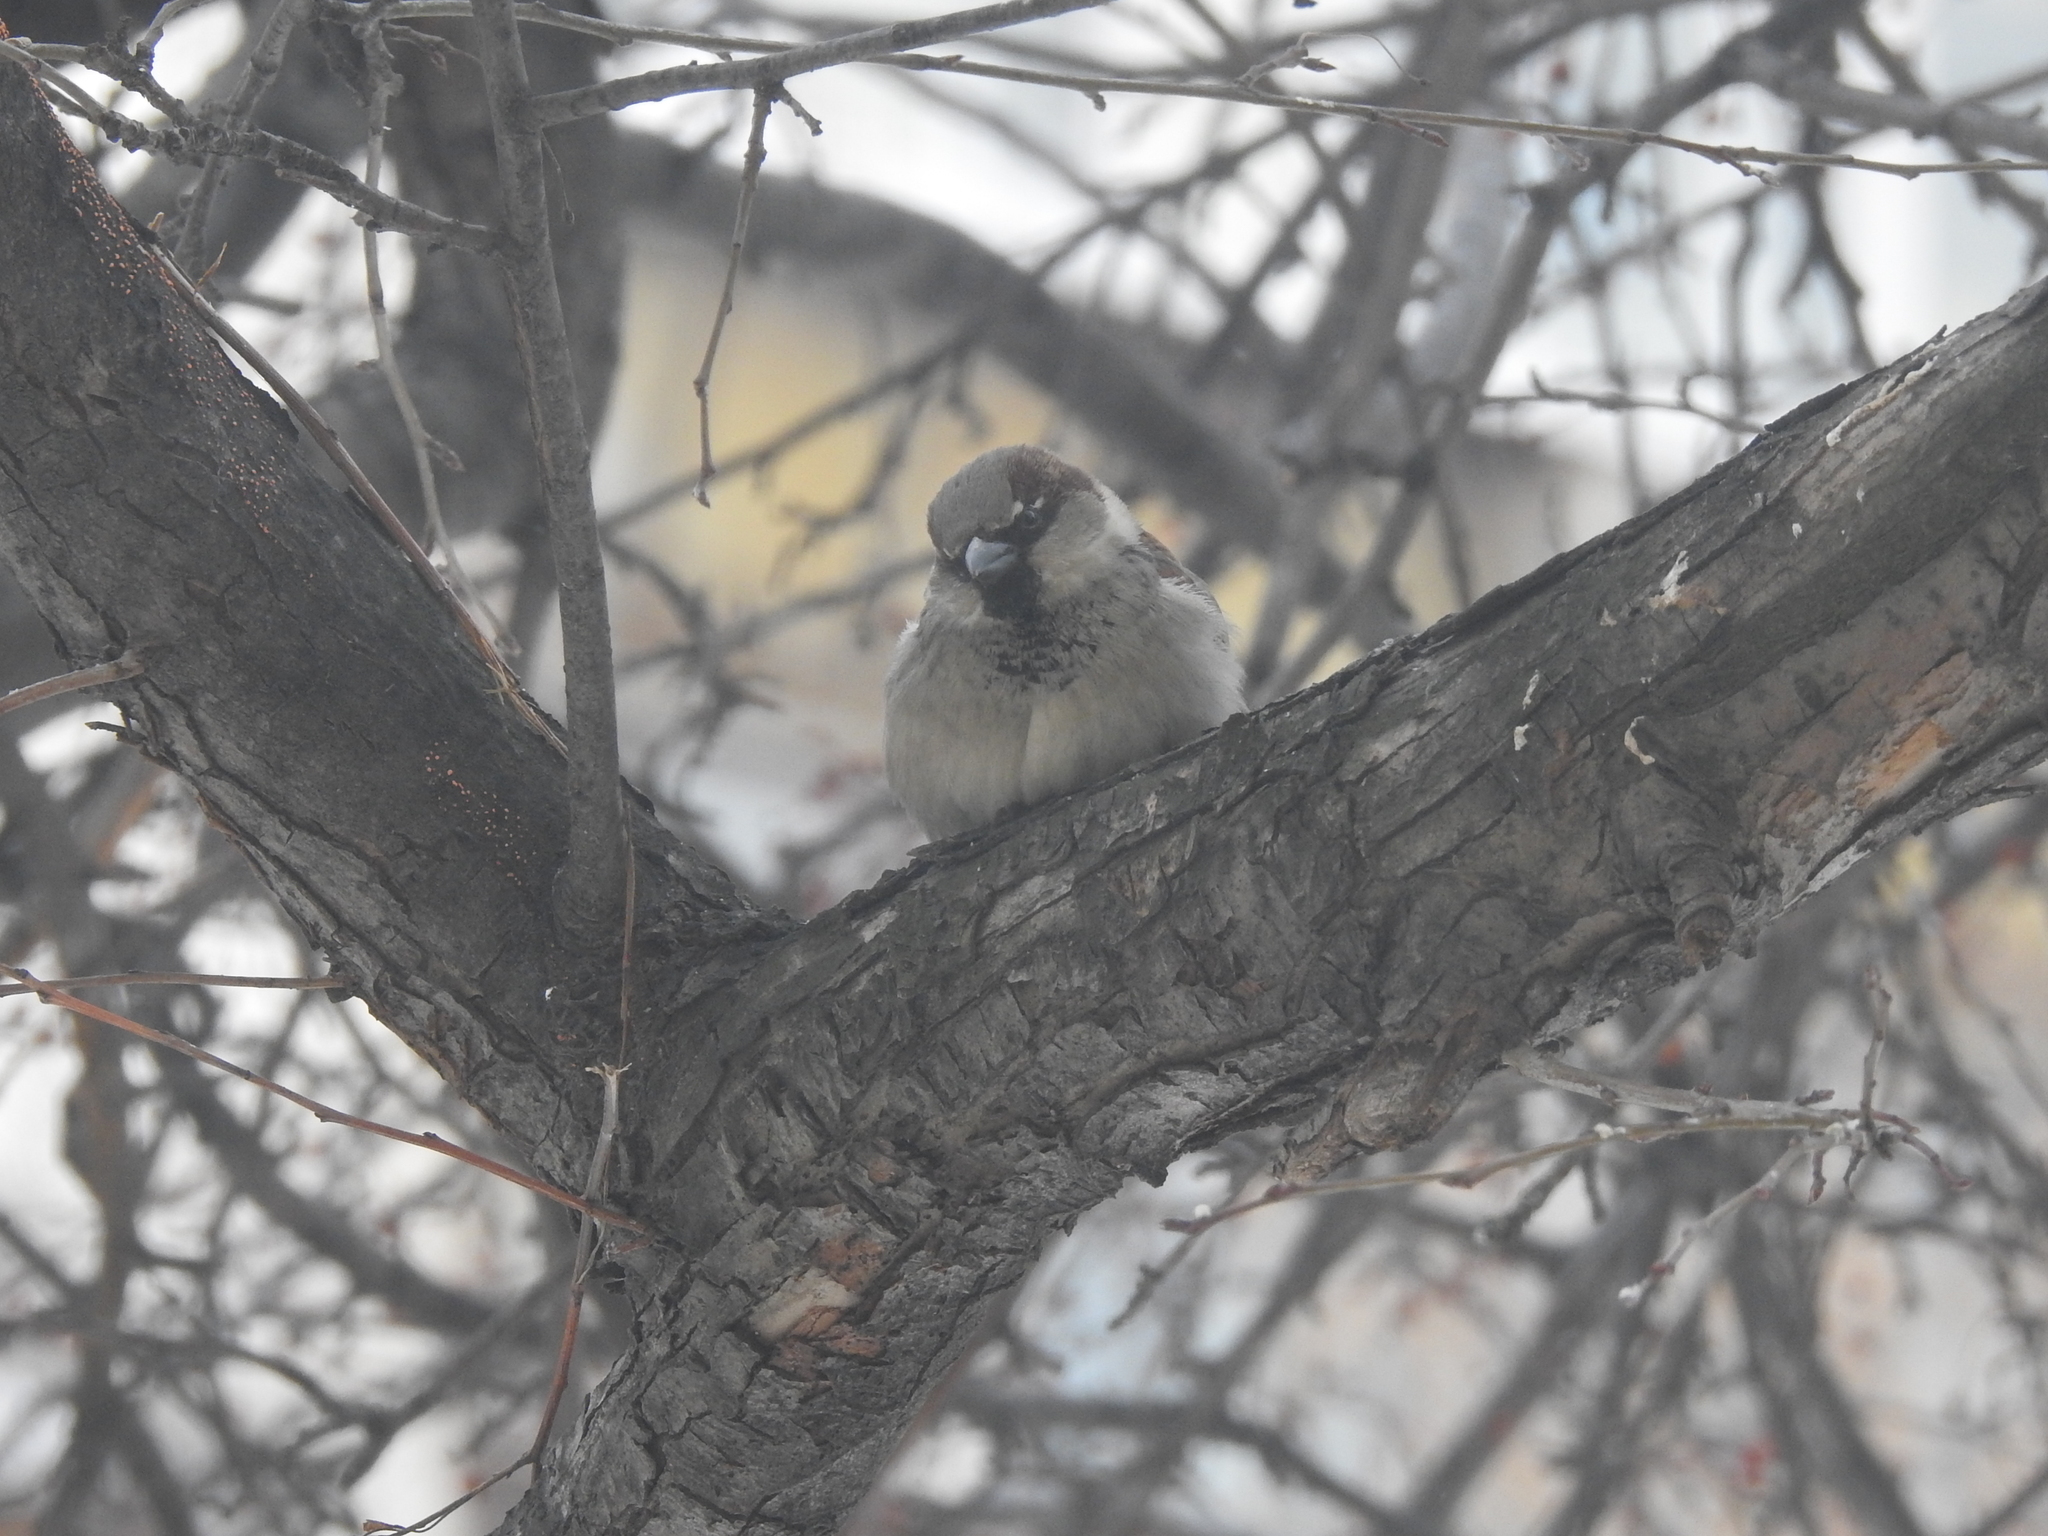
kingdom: Animalia
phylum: Chordata
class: Aves
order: Passeriformes
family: Passeridae
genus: Passer
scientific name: Passer domesticus
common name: House sparrow
